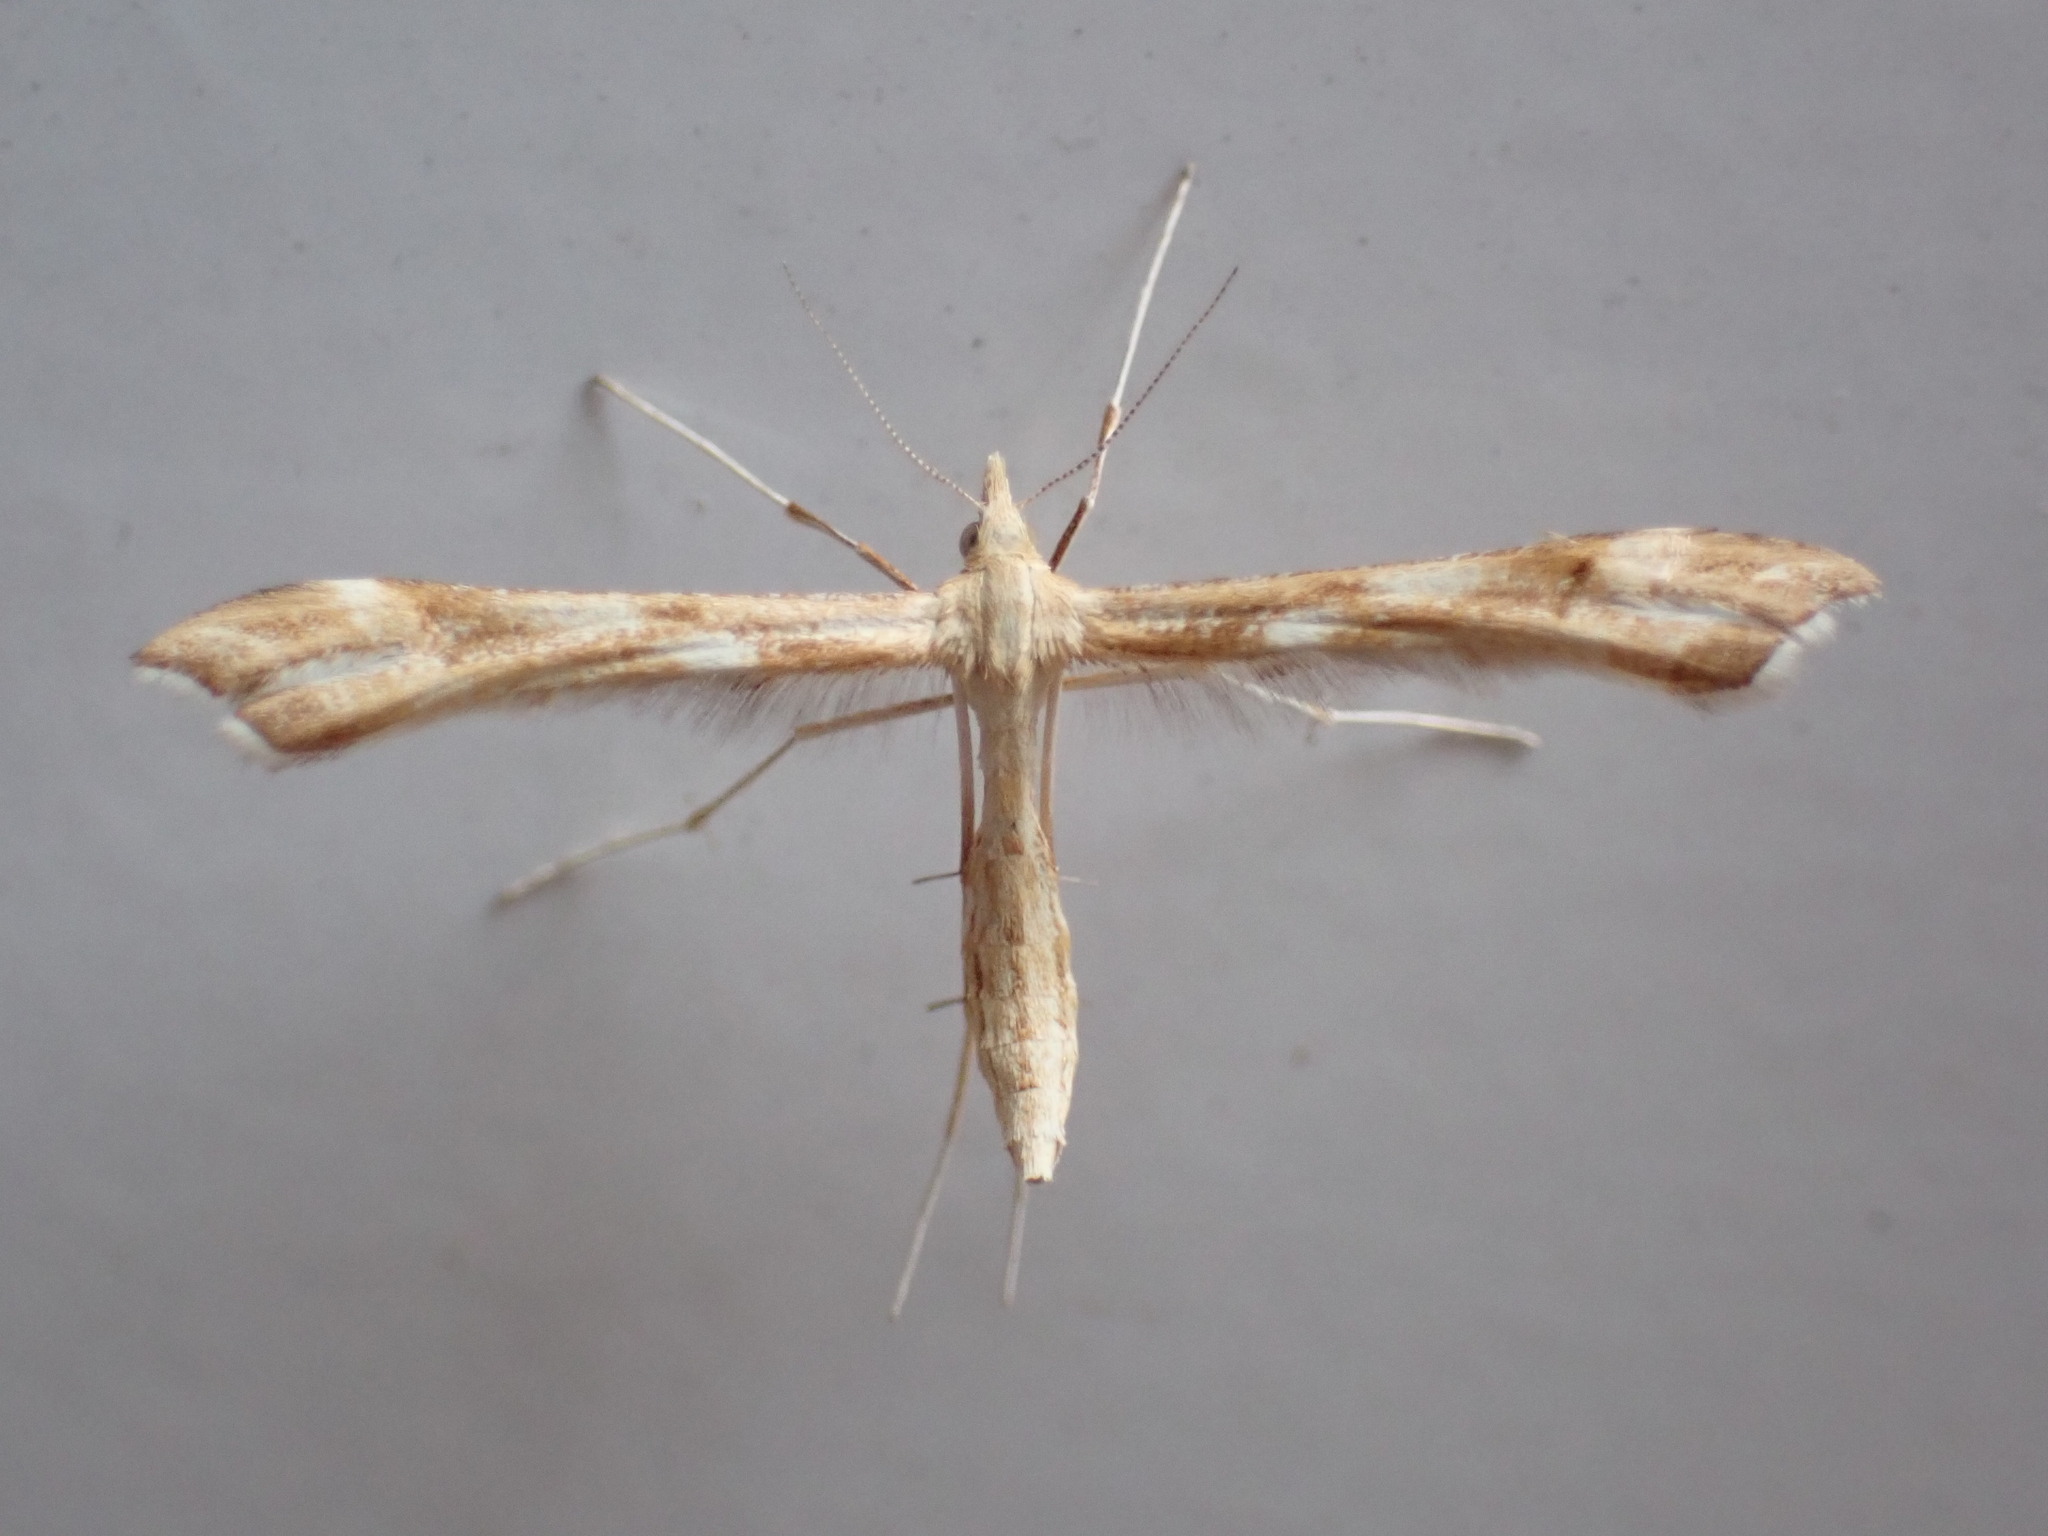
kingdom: Animalia
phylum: Arthropoda
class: Insecta
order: Lepidoptera
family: Pterophoridae
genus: Gillmeria
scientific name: Gillmeria pallidactyla
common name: Yarrow plume
